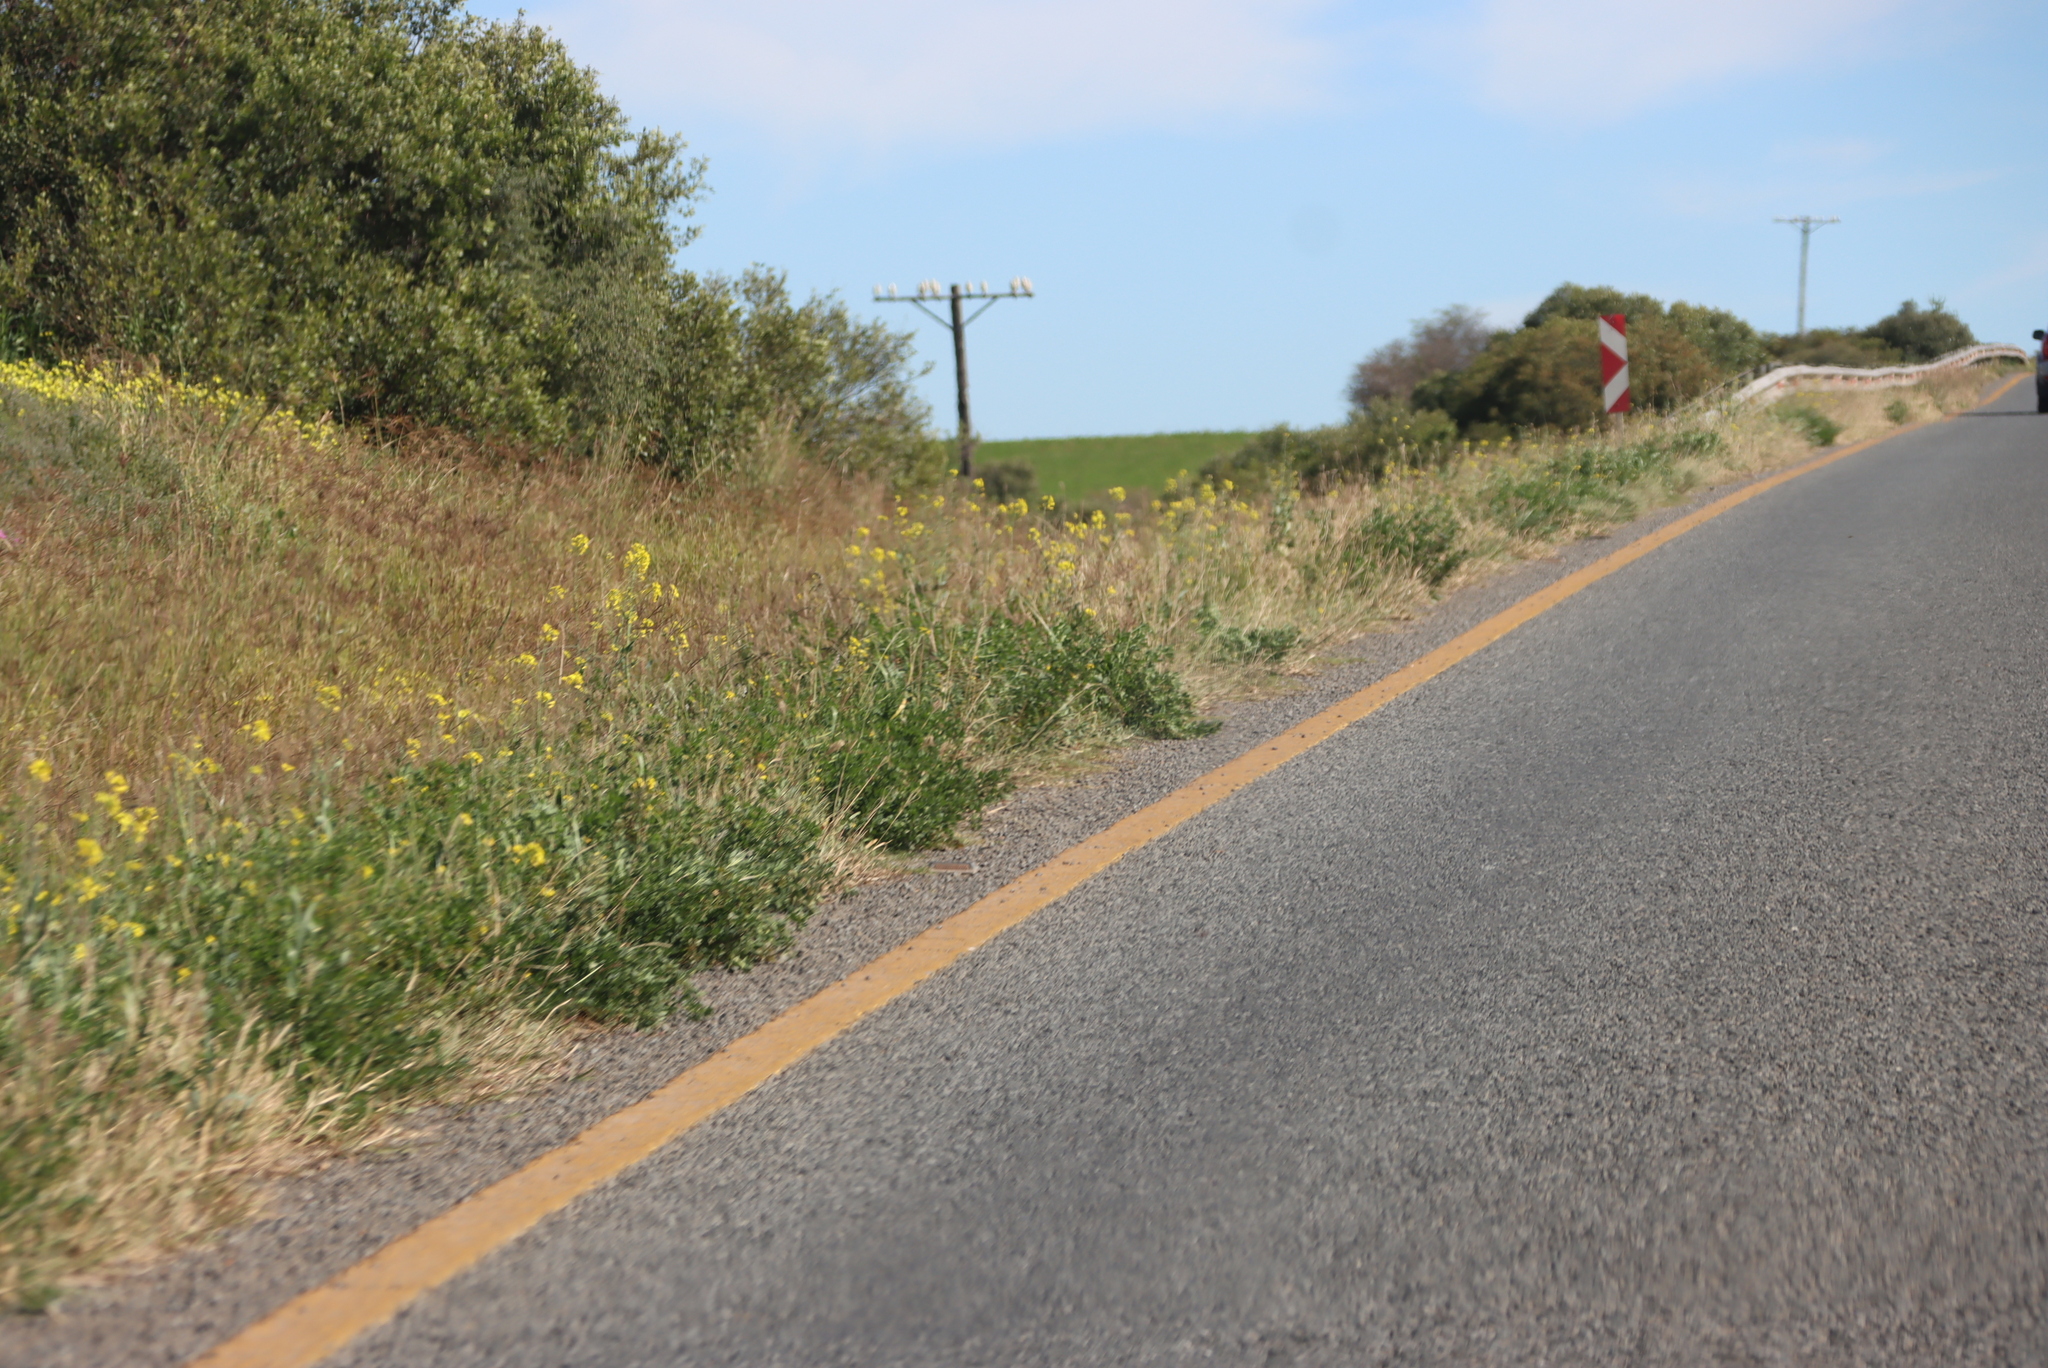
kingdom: Plantae
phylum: Tracheophyta
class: Magnoliopsida
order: Brassicales
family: Brassicaceae
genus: Rapistrum
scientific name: Rapistrum rugosum
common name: Annual bastardcabbage
